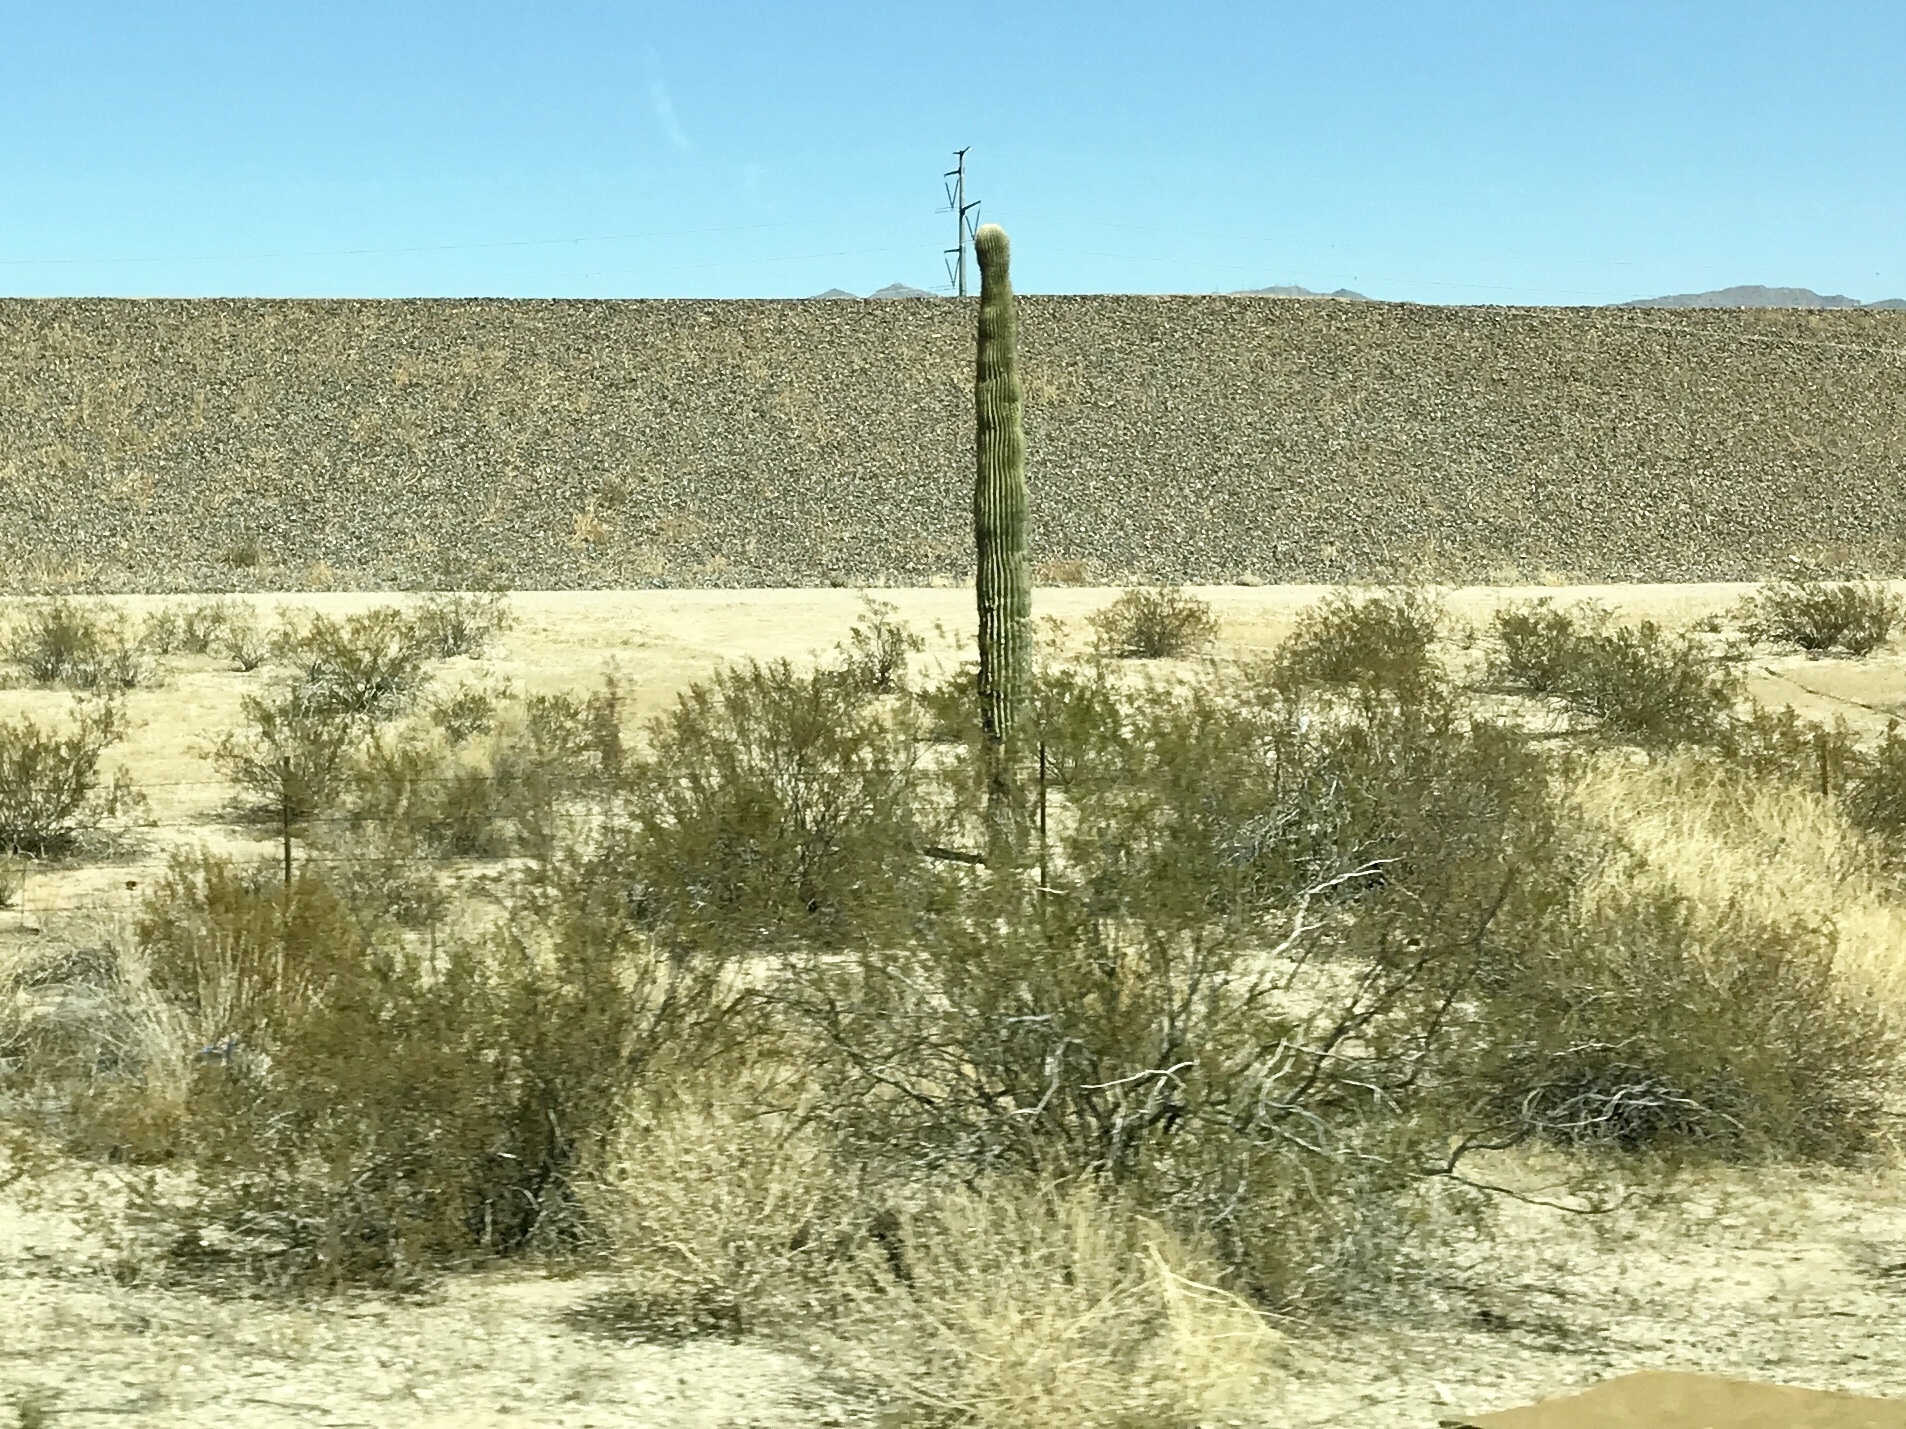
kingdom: Plantae
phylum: Tracheophyta
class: Magnoliopsida
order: Caryophyllales
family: Cactaceae
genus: Carnegiea
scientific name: Carnegiea gigantea
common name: Saguaro
